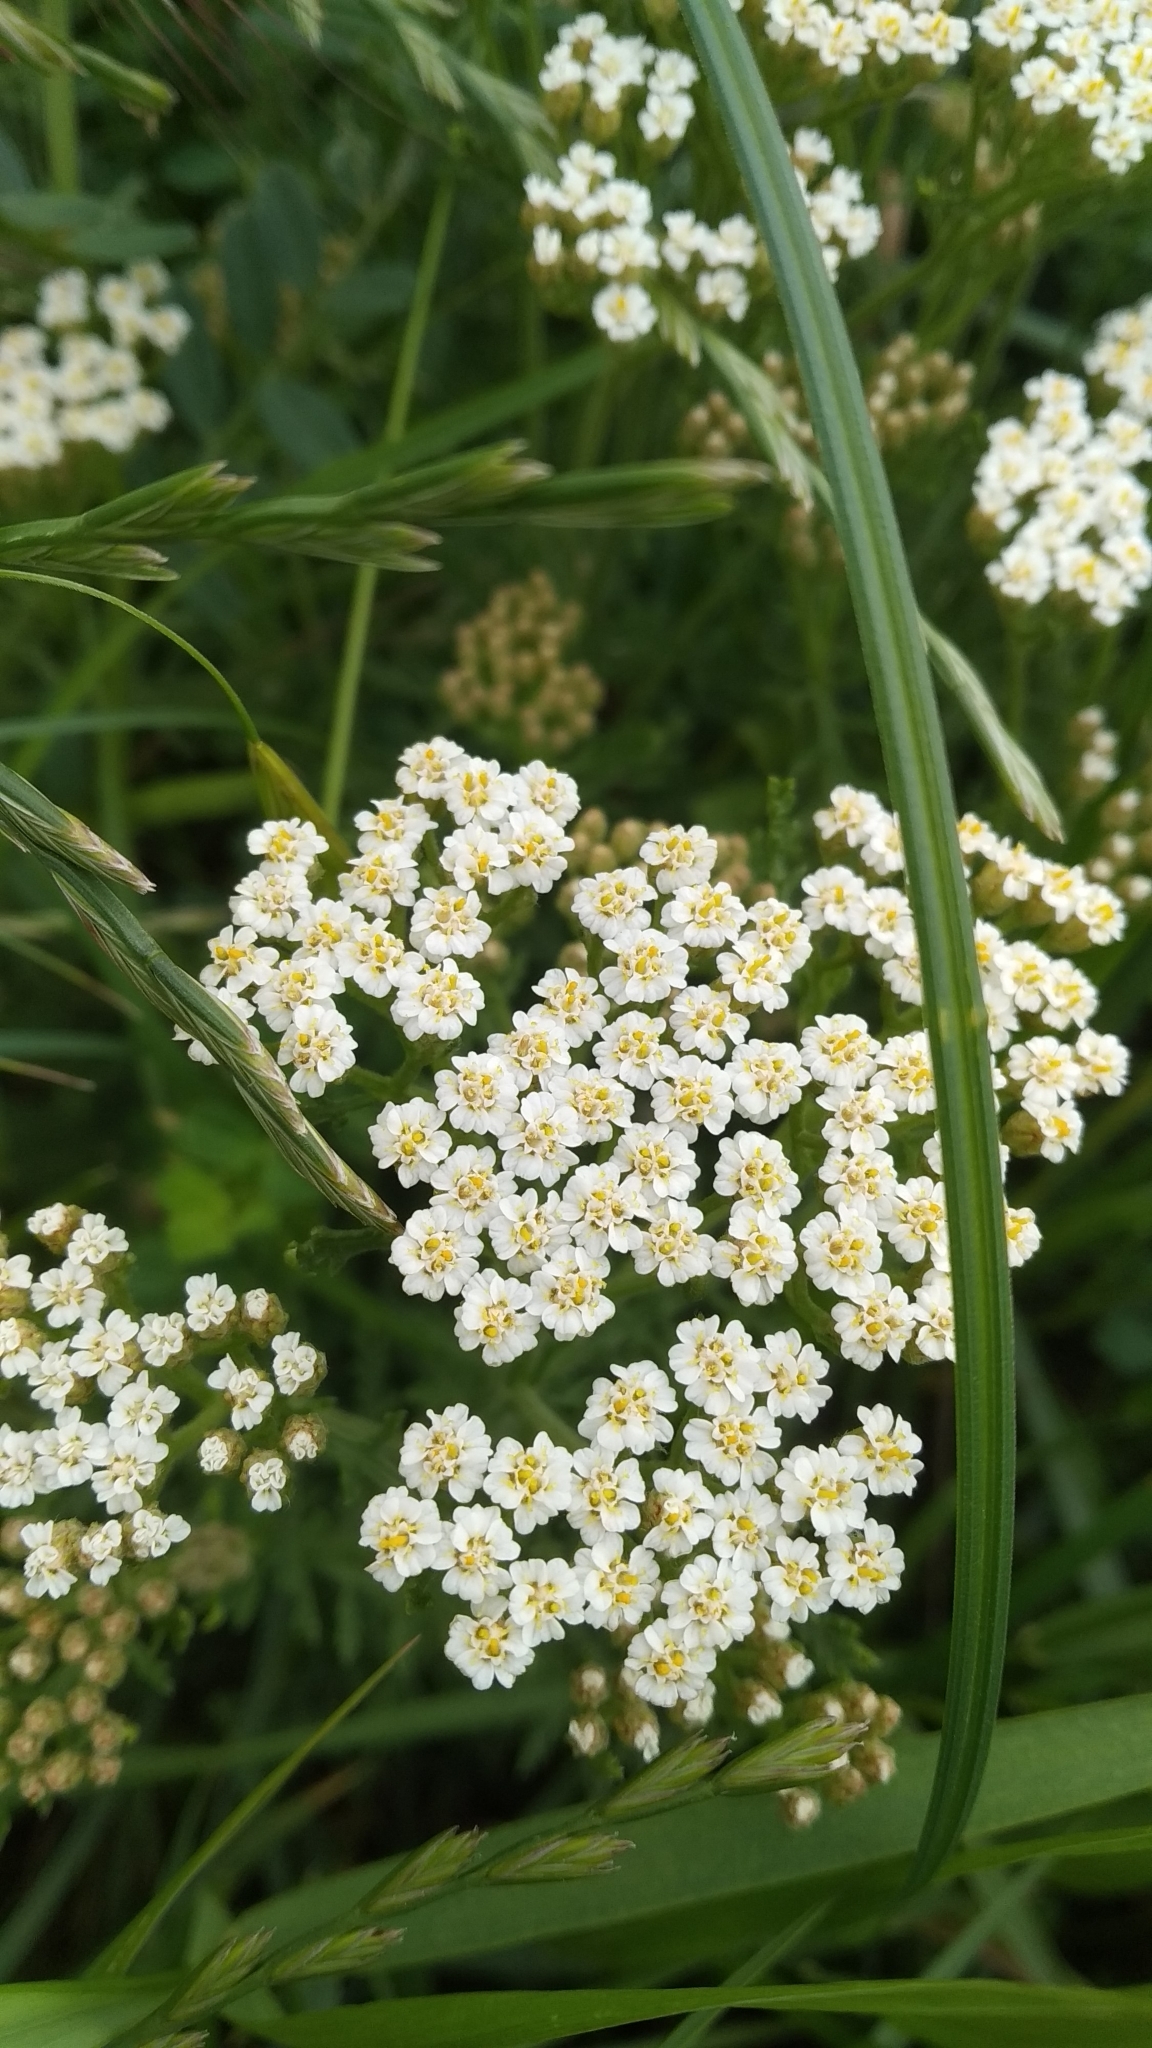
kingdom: Plantae
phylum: Tracheophyta
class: Magnoliopsida
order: Asterales
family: Asteraceae
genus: Achillea
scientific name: Achillea millefolium
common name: Yarrow
